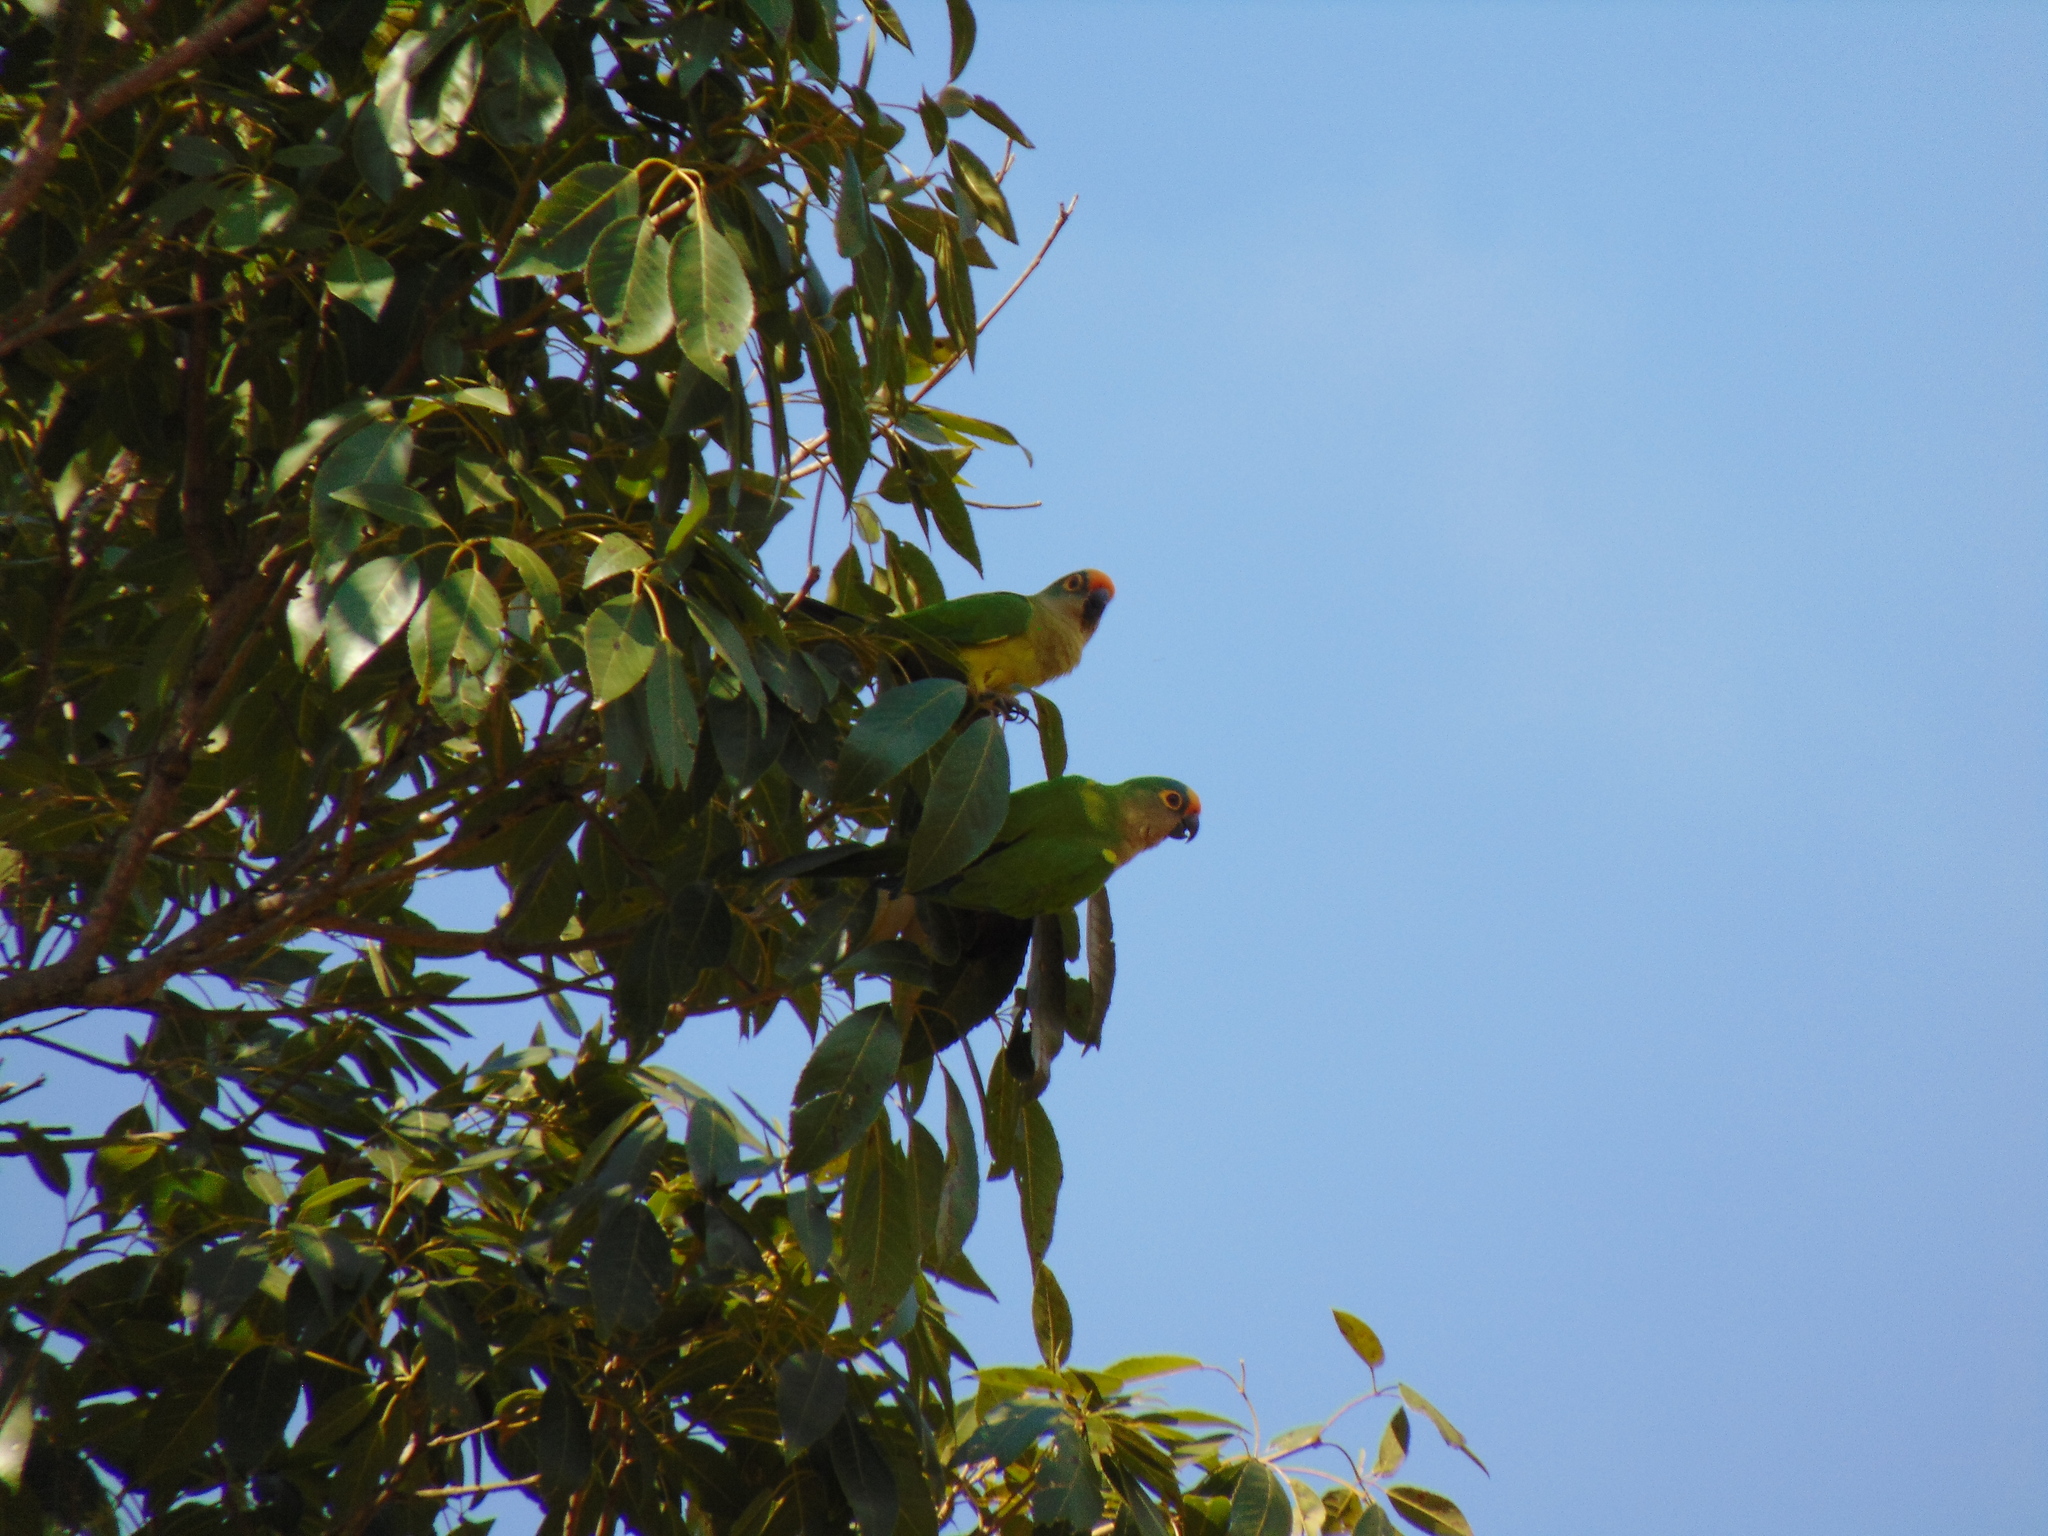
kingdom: Animalia
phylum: Chordata
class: Aves
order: Psittaciformes
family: Psittacidae
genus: Aratinga
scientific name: Aratinga aurea
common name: Peach-fronted parakeet
